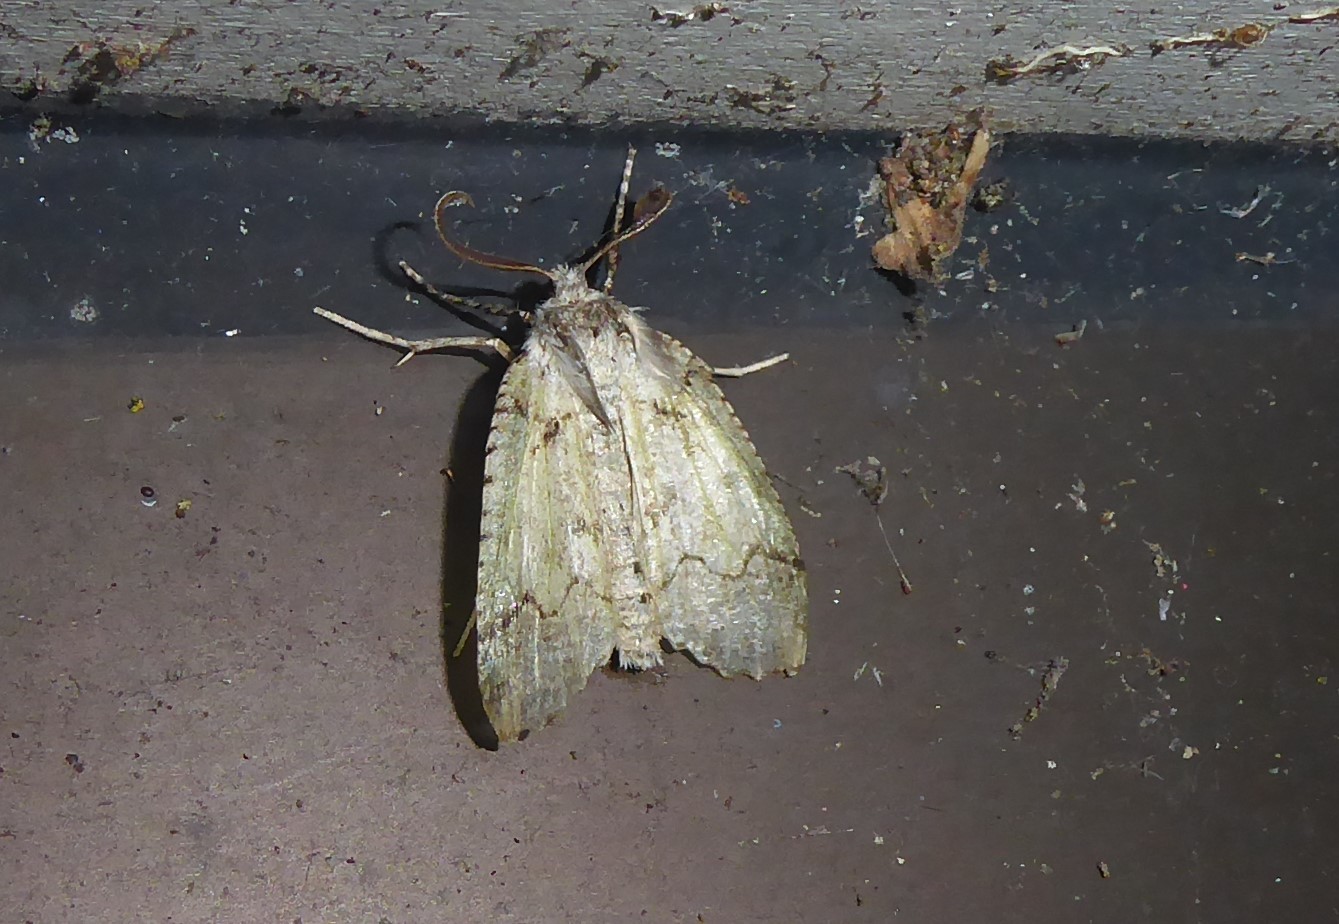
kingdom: Animalia
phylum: Arthropoda
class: Insecta
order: Lepidoptera
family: Geometridae
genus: Declana
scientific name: Declana floccosa
